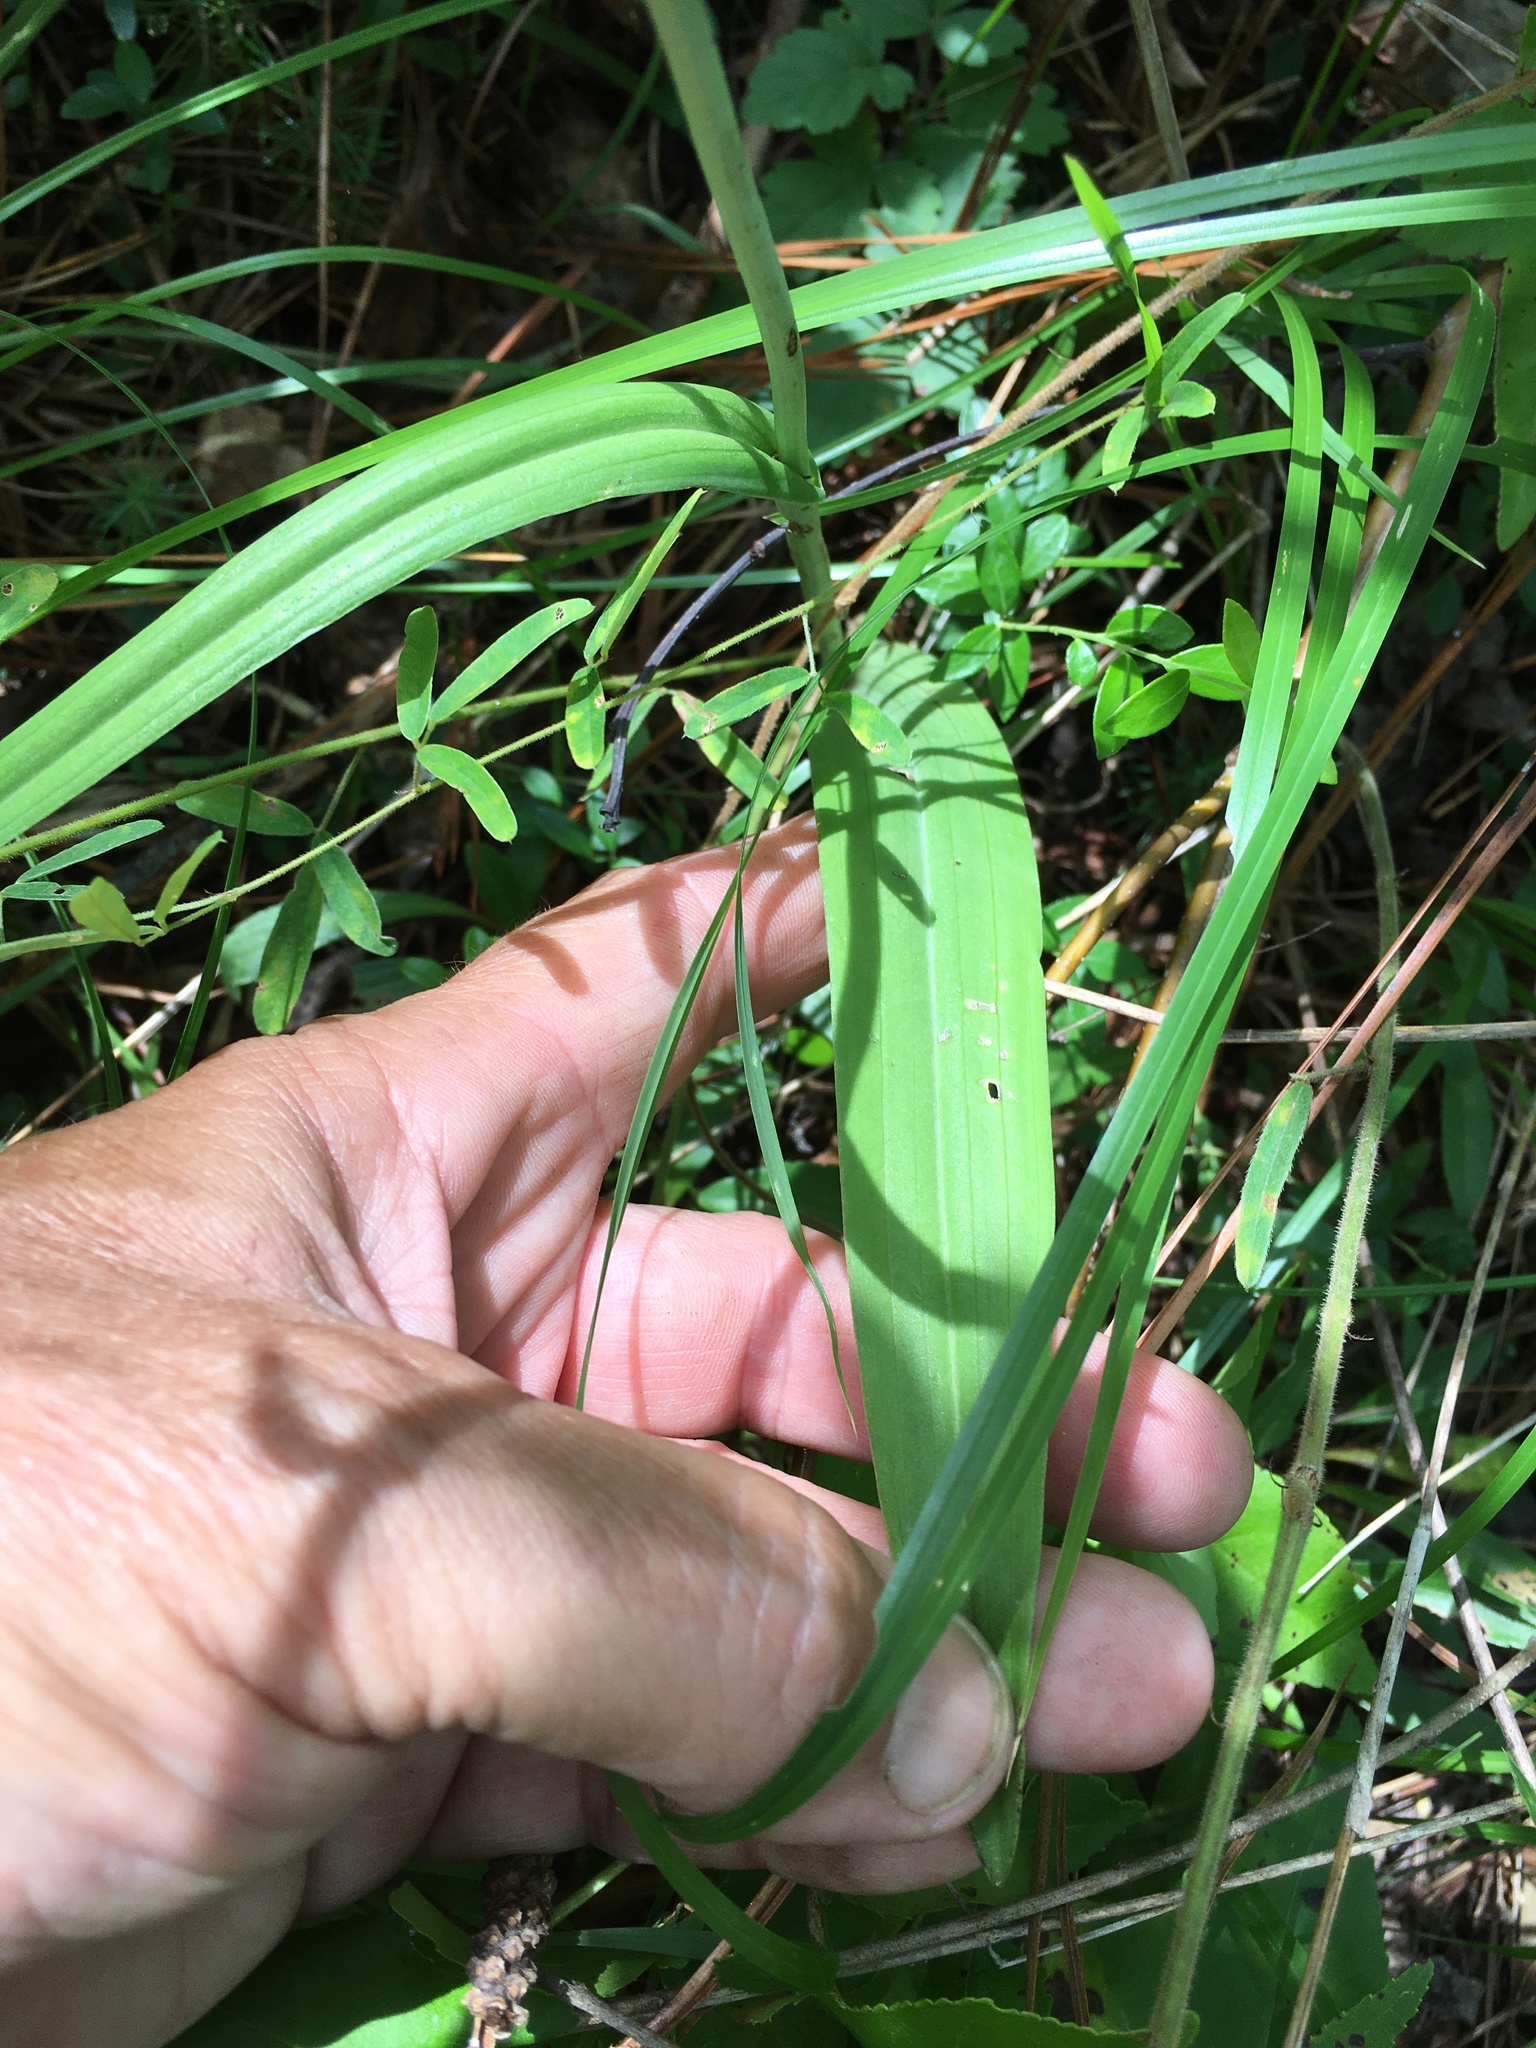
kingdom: Plantae
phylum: Tracheophyta
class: Liliopsida
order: Asparagales
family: Orchidaceae
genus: Platanthera
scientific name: Platanthera ciliaris
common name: Yellow fringed orchid
